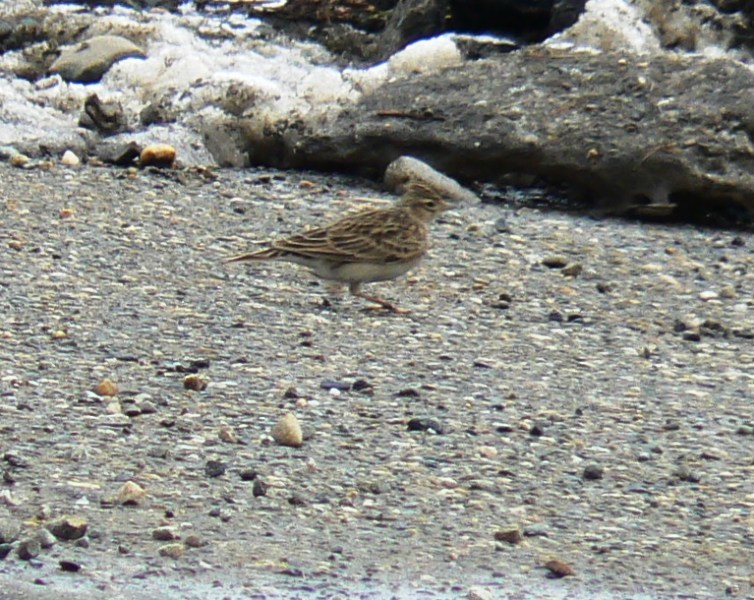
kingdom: Animalia
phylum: Chordata
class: Aves
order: Passeriformes
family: Alaudidae
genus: Alauda
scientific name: Alauda arvensis
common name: Eurasian skylark
